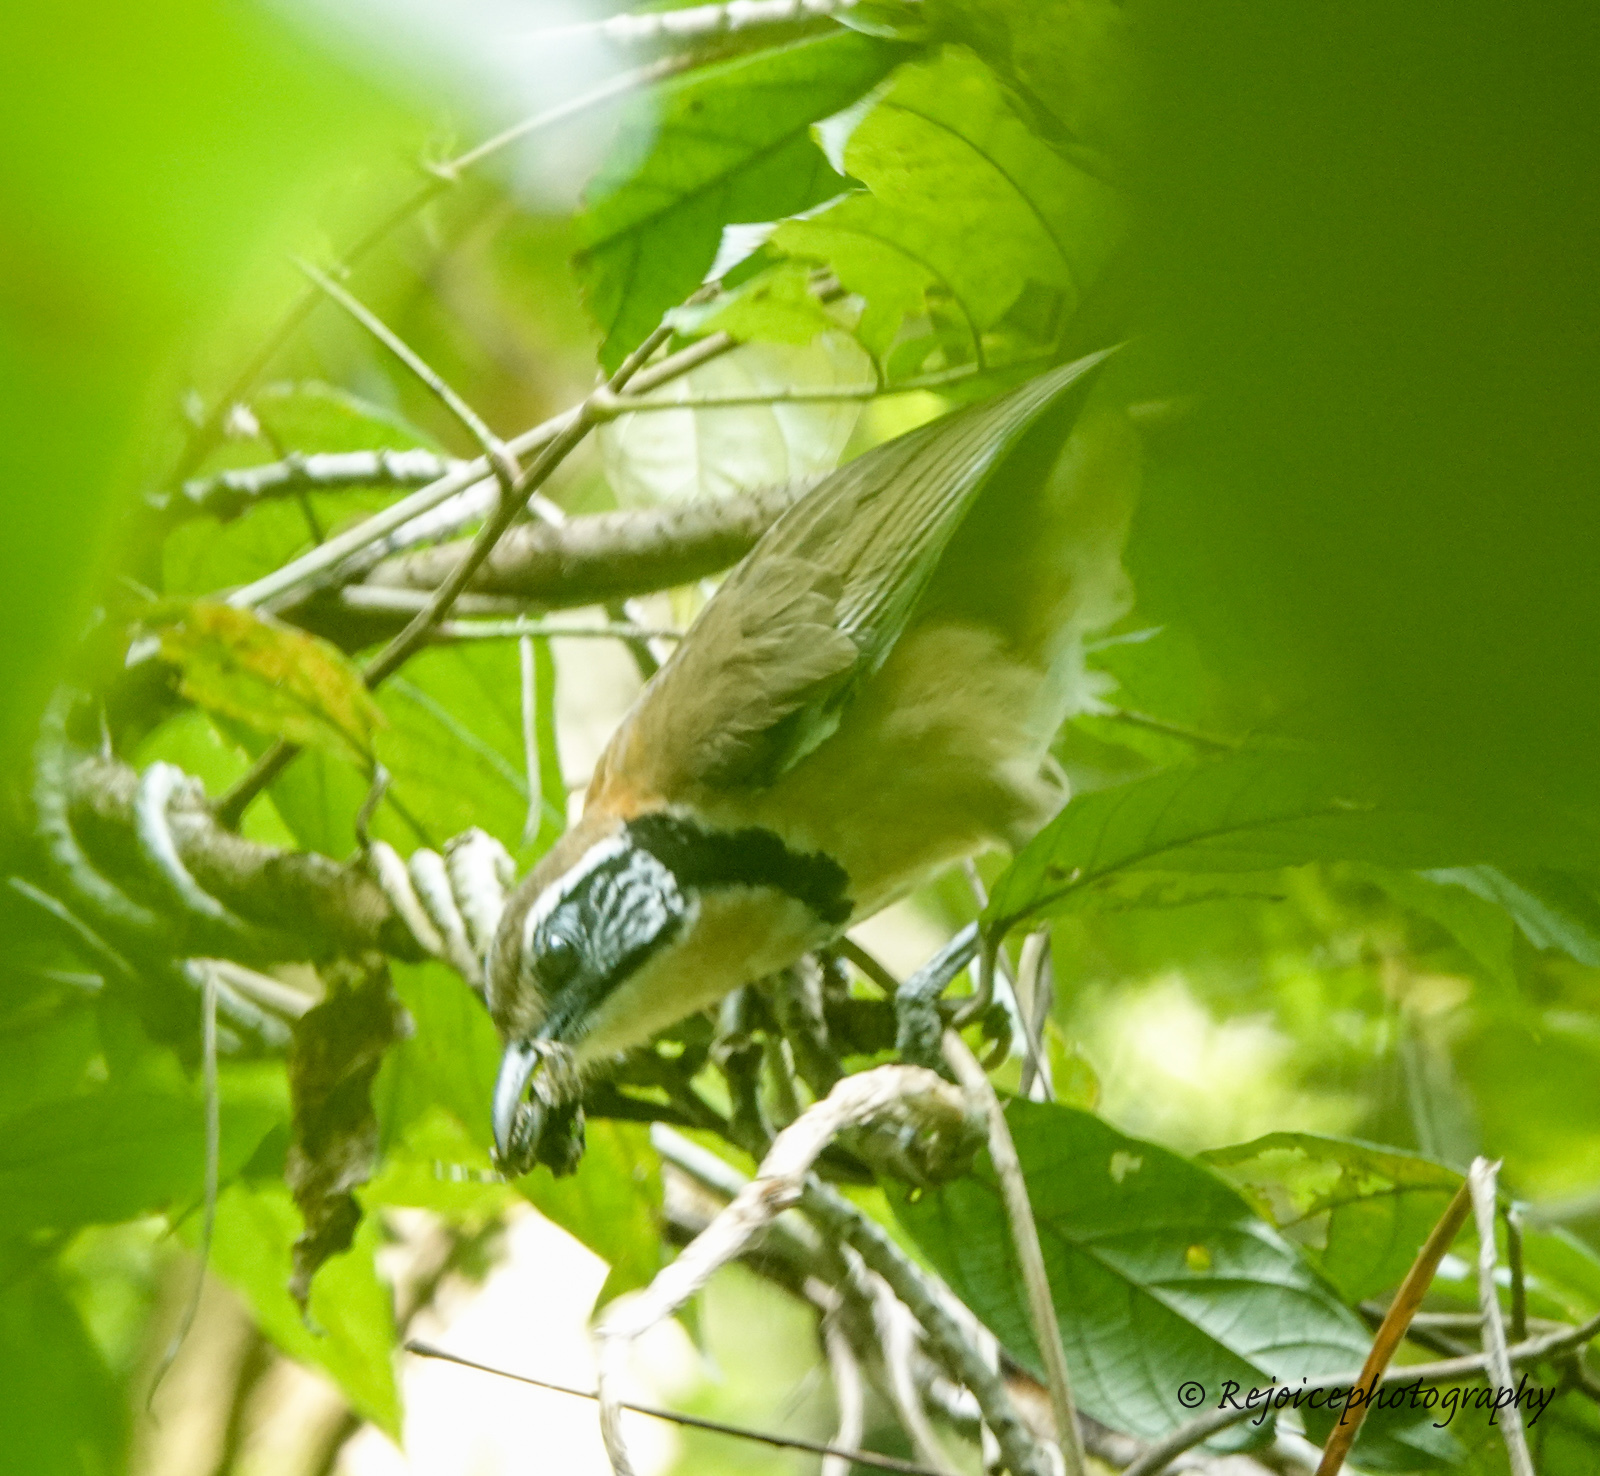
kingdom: Animalia
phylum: Chordata
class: Aves
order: Passeriformes
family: Leiothrichidae
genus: Garrulax
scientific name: Garrulax pectoralis
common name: Greater necklaced laughingthrush
